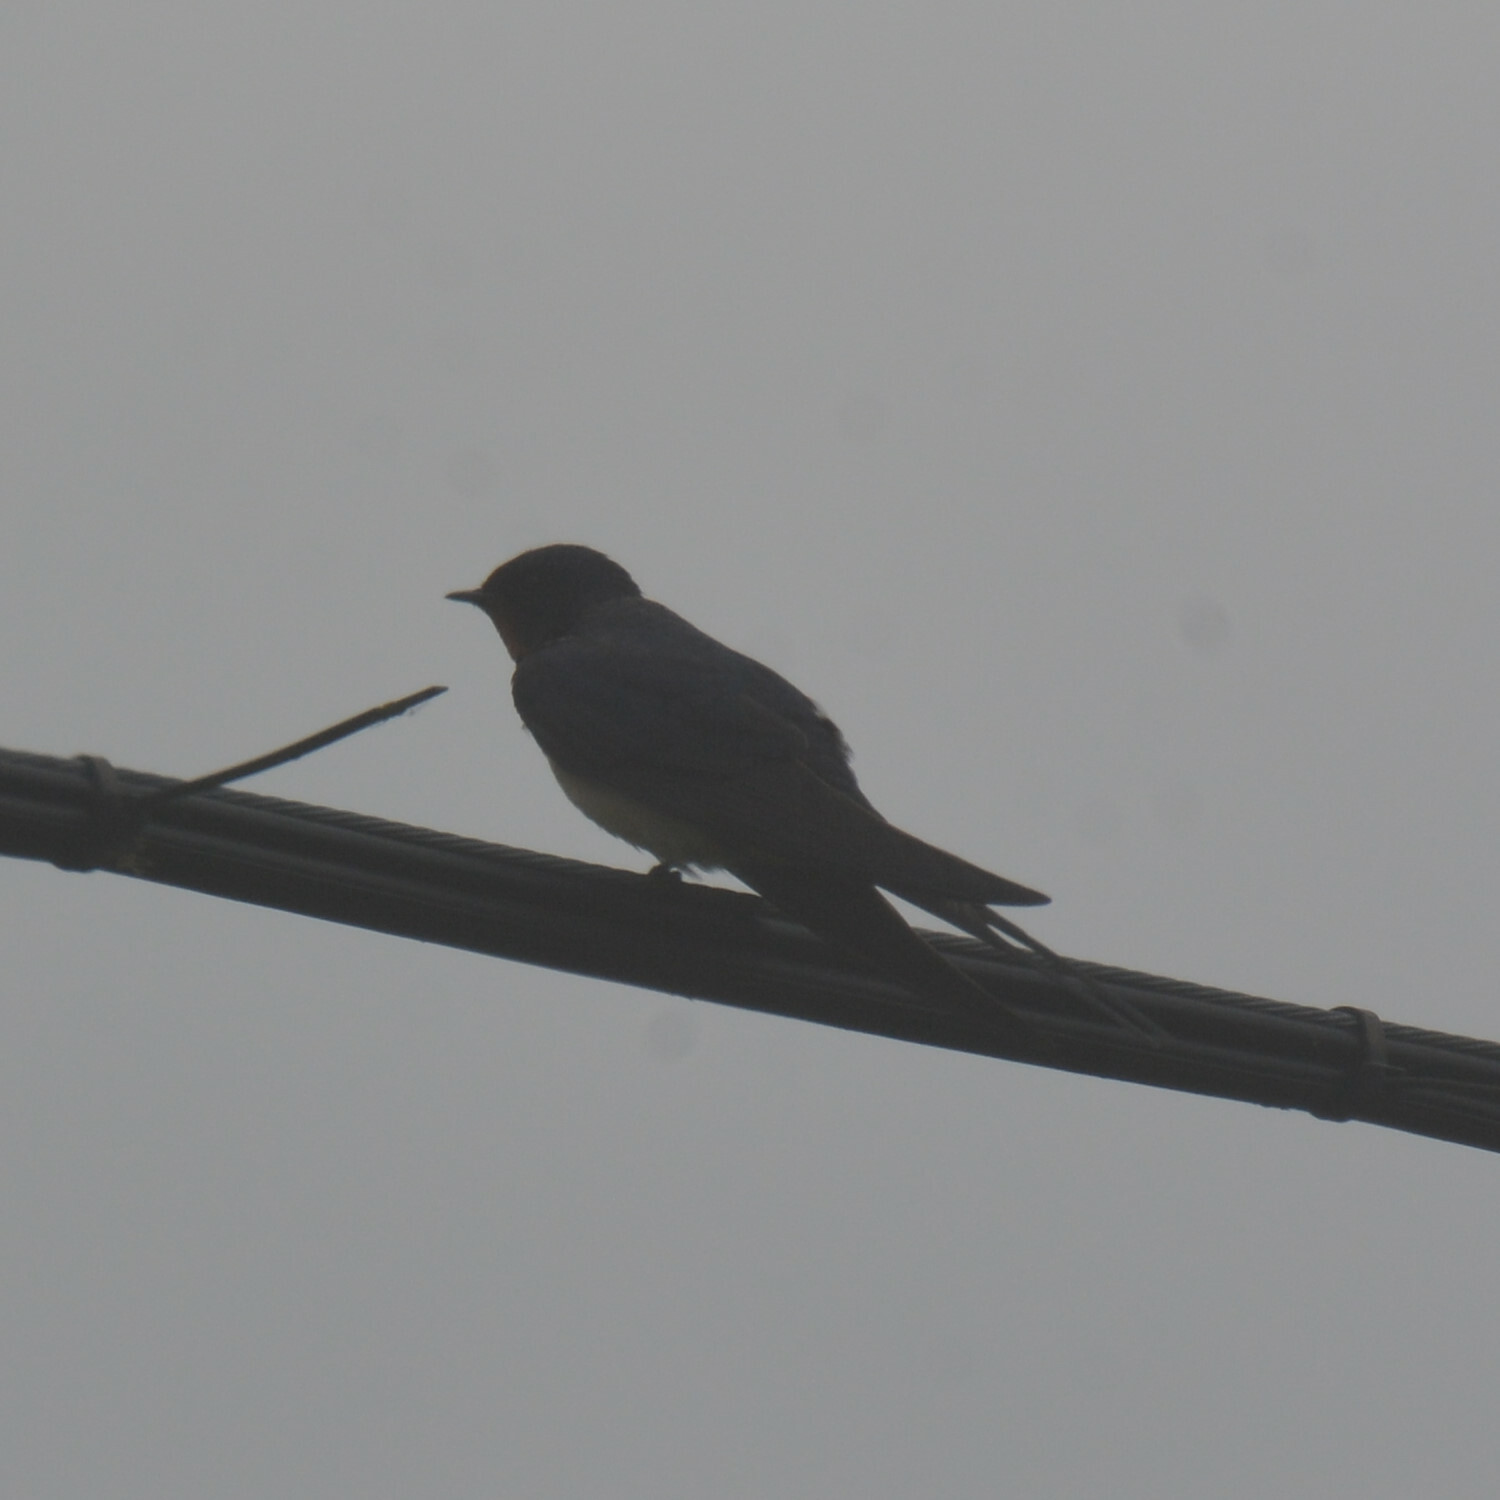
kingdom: Animalia
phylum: Chordata
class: Aves
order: Passeriformes
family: Hirundinidae
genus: Hirundo
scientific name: Hirundo rustica
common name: Barn swallow
